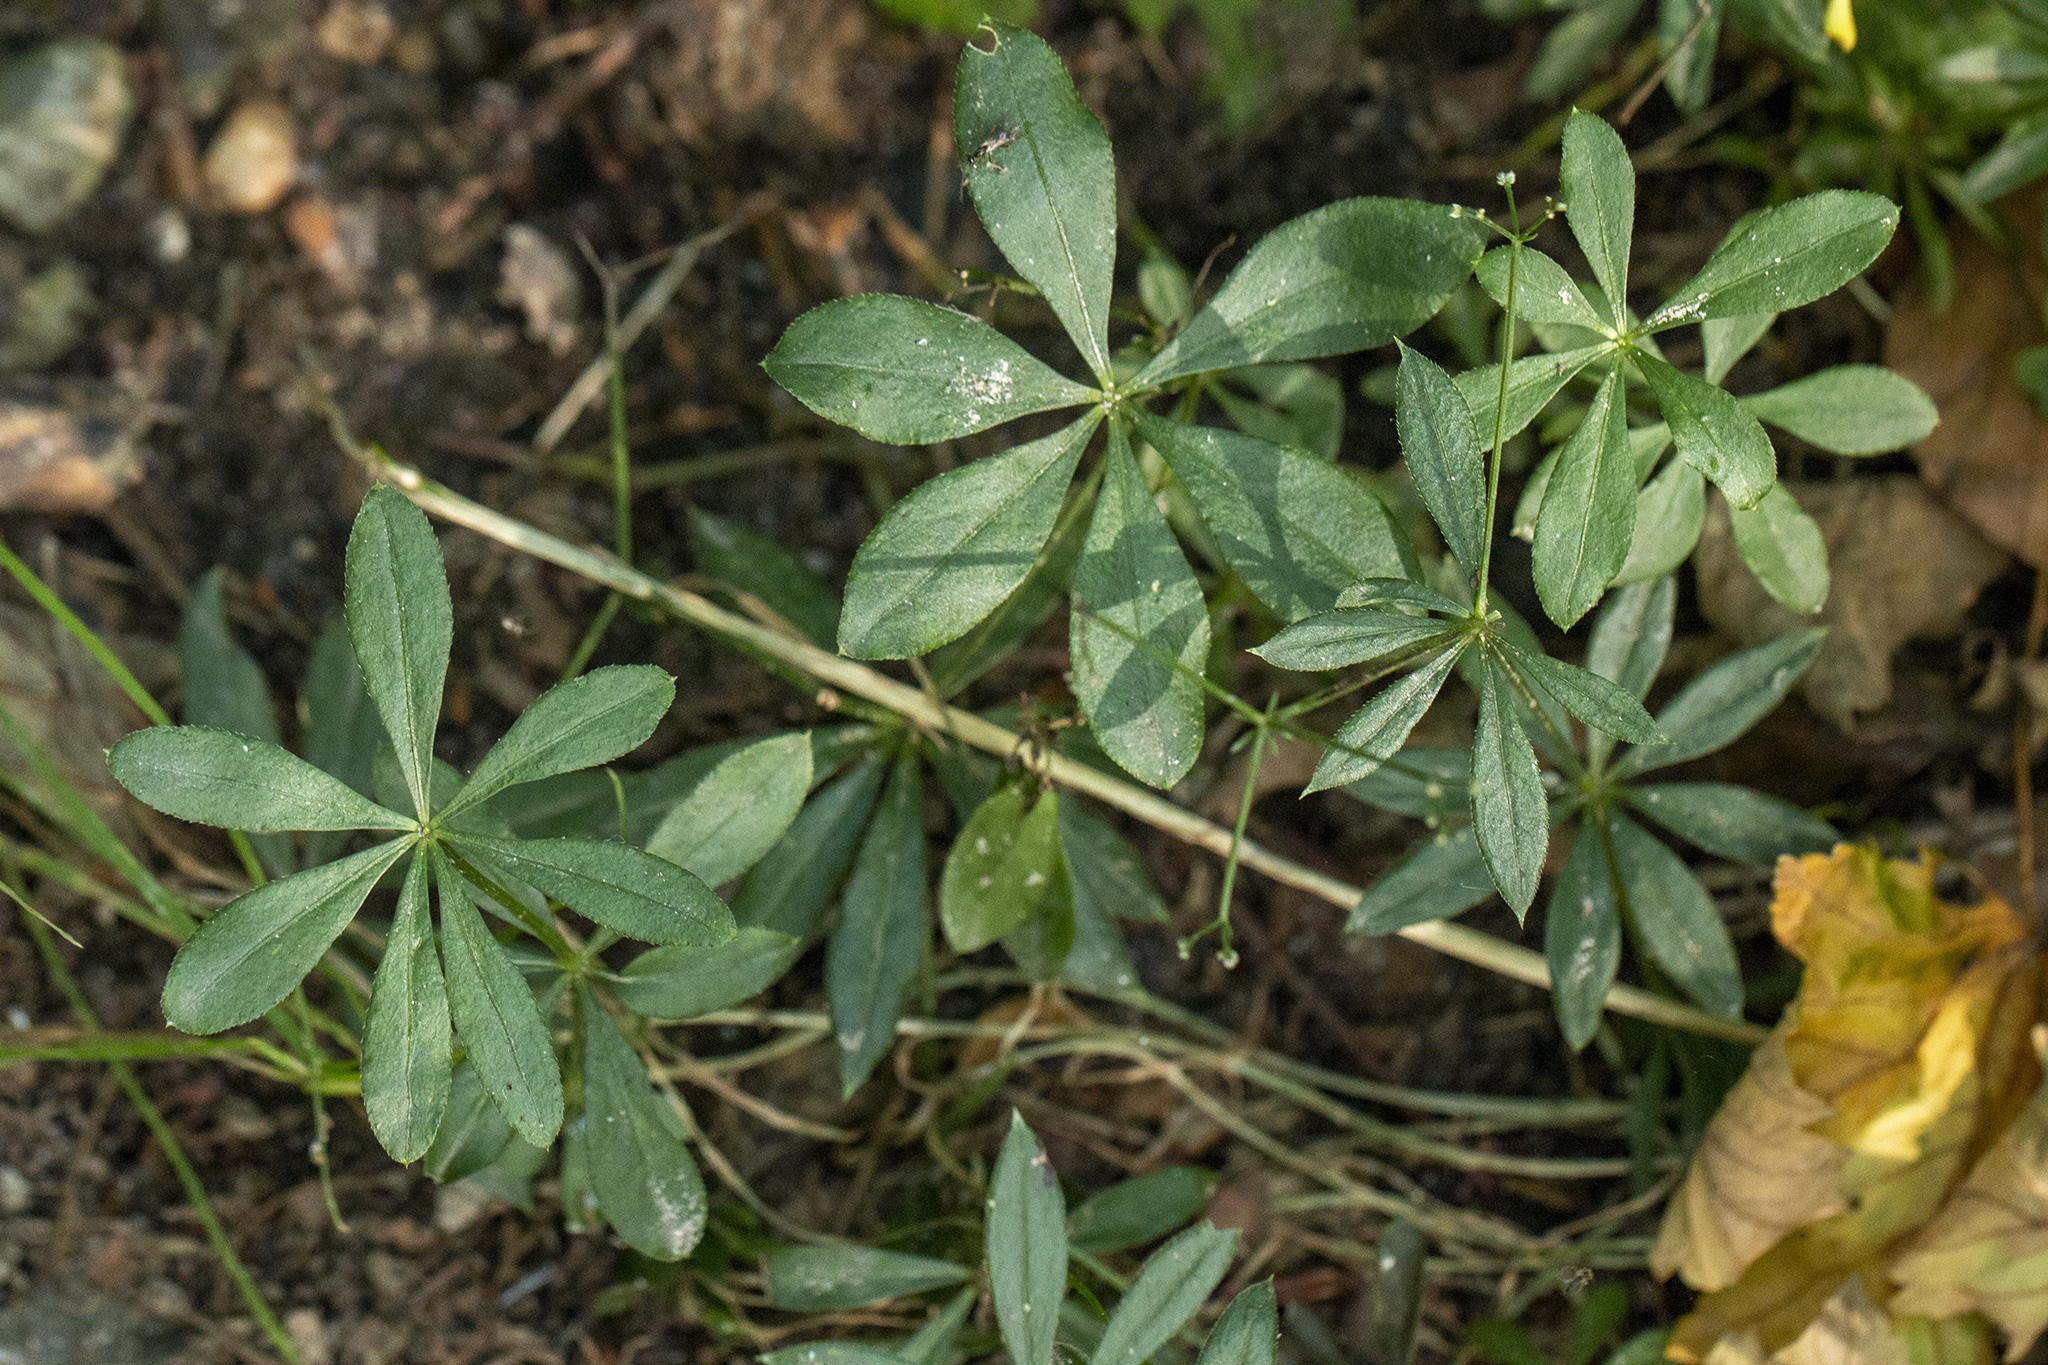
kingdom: Plantae
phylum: Tracheophyta
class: Magnoliopsida
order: Gentianales
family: Rubiaceae
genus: Galium
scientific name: Galium odoratum
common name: Sweet woodruff
